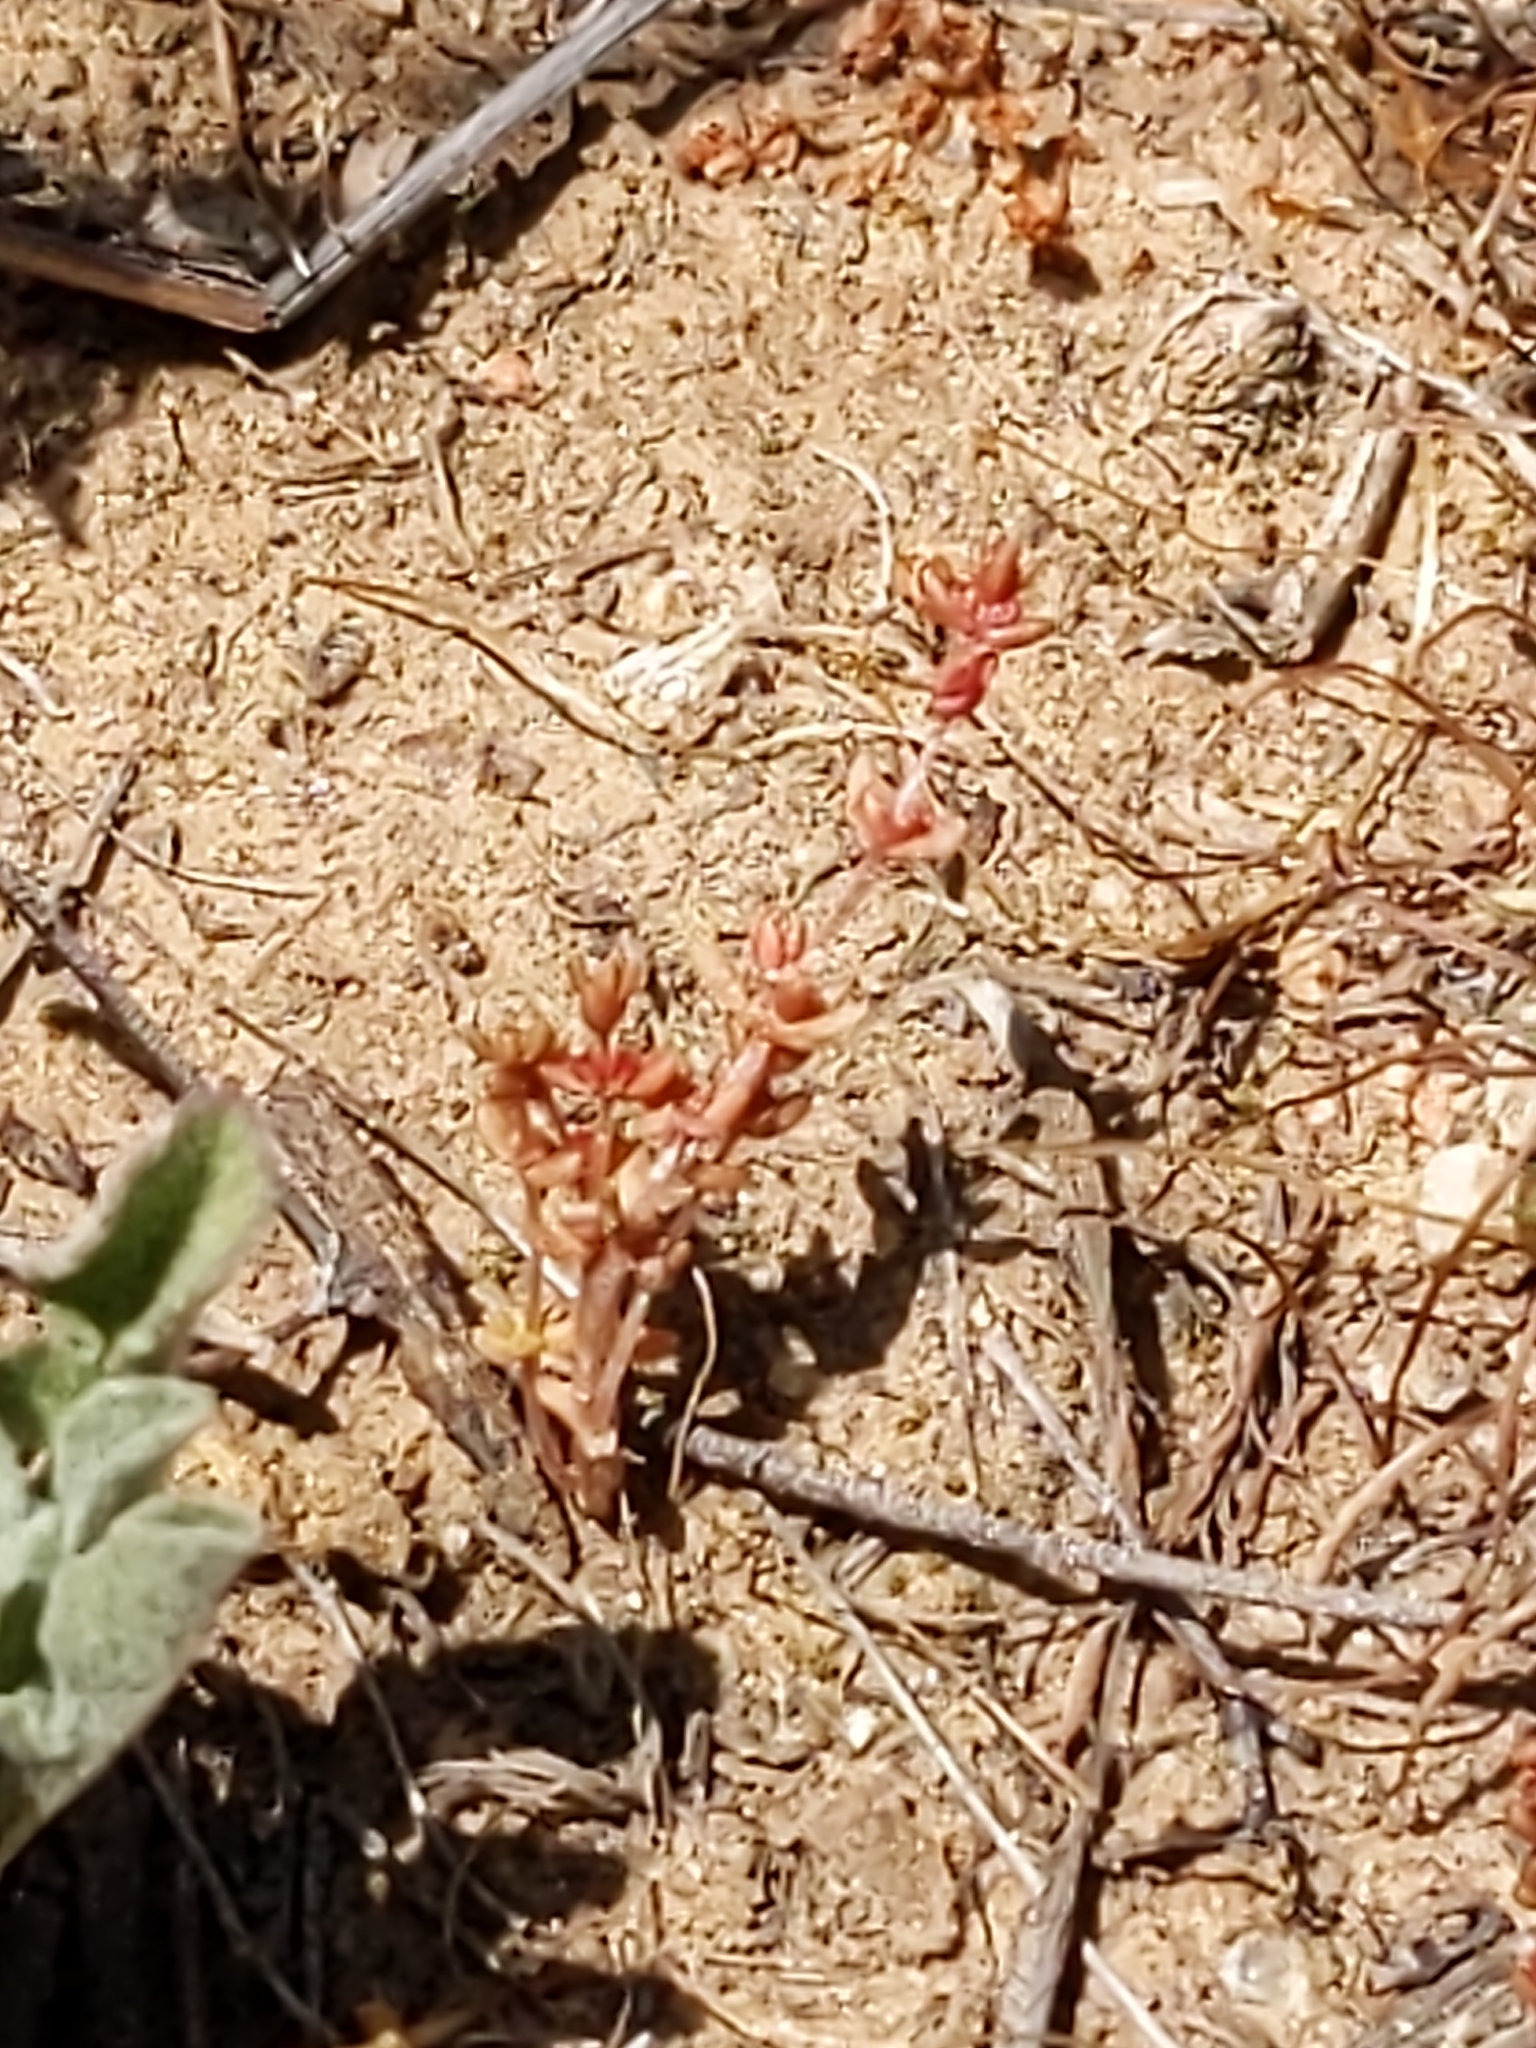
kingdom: Plantae
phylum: Tracheophyta
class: Magnoliopsida
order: Saxifragales
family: Crassulaceae
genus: Crassula
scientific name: Crassula connata
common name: Erect pygmyweed
